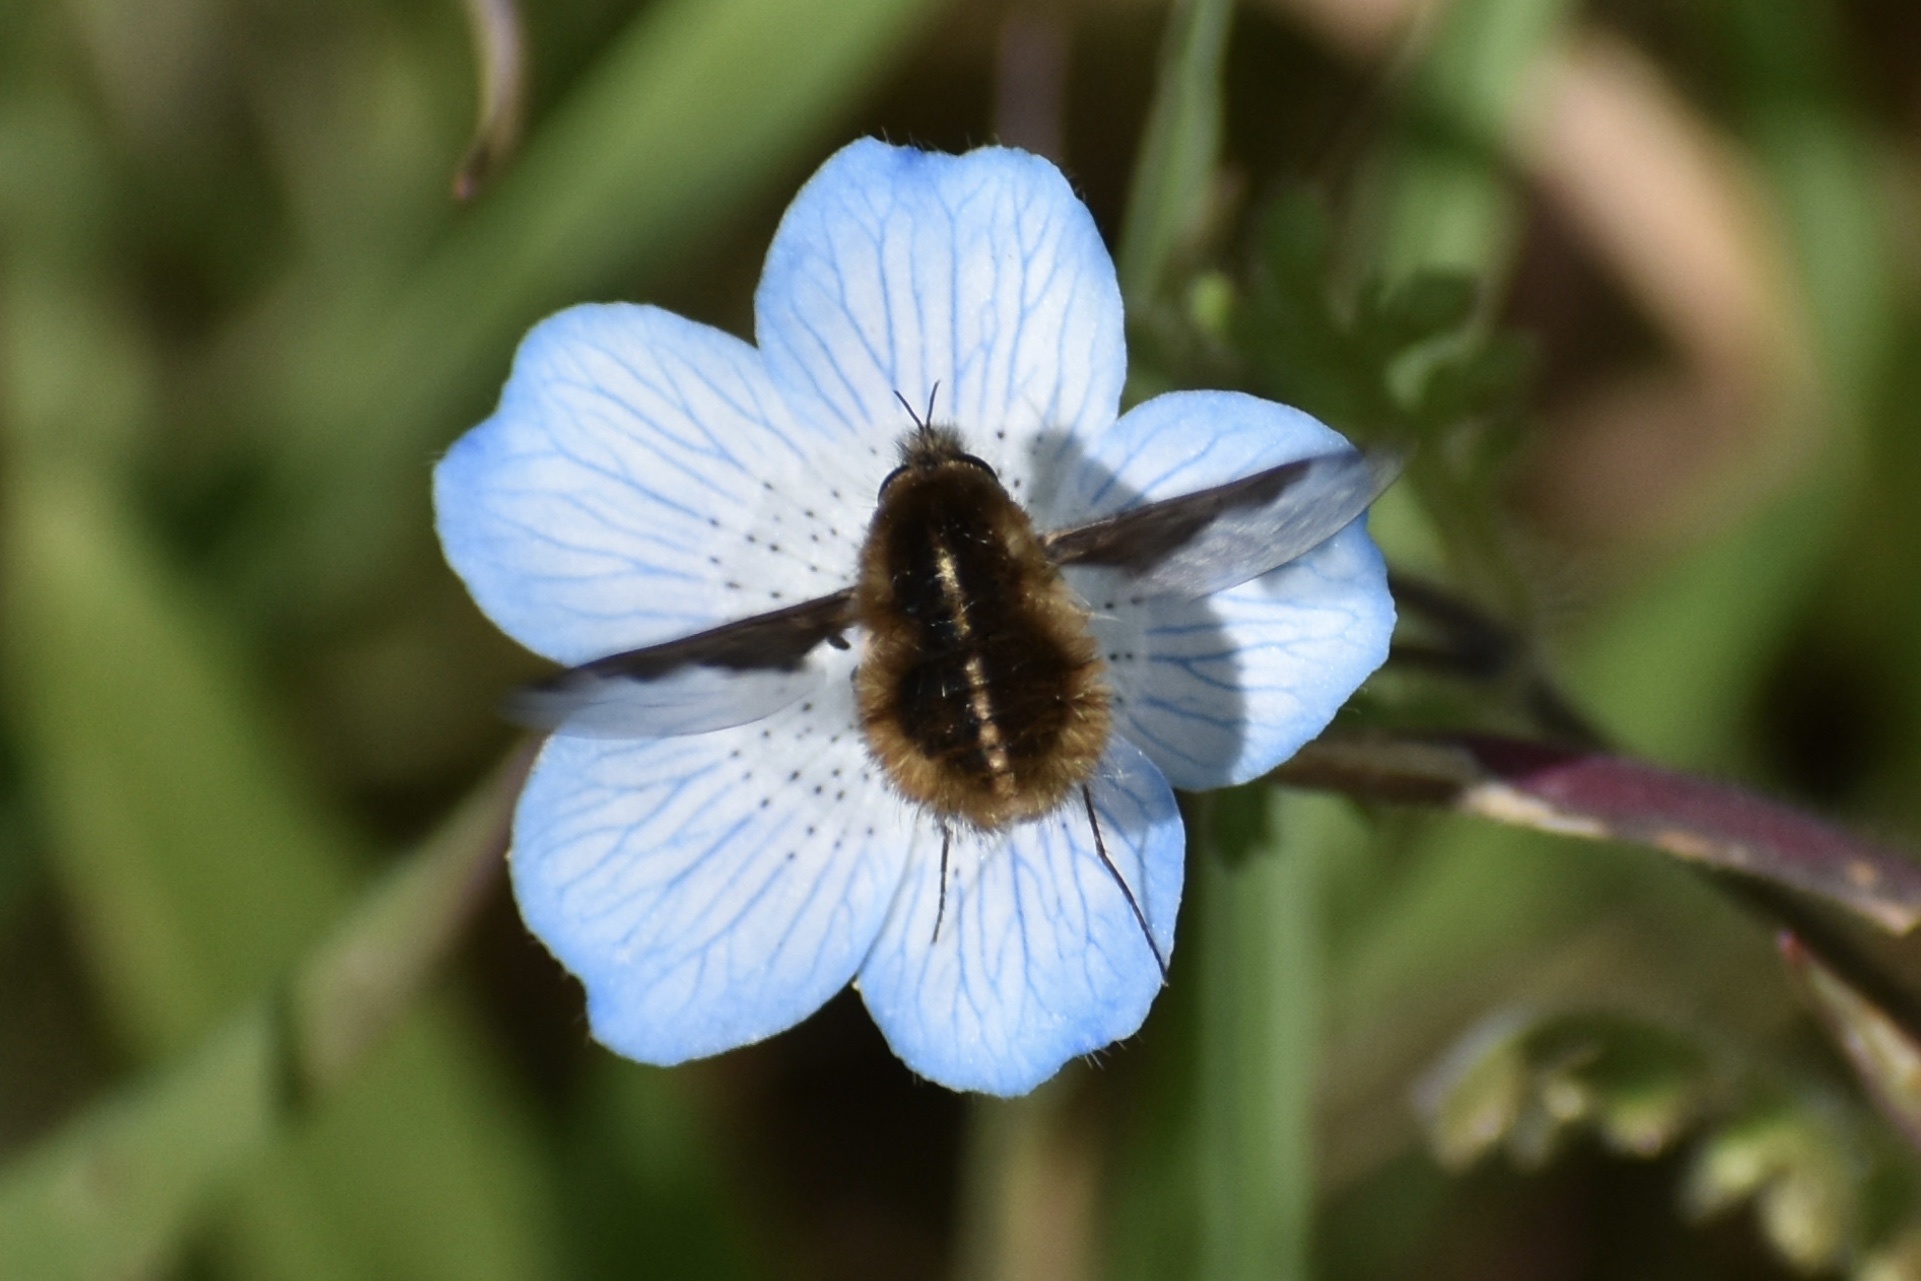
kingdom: Animalia
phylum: Arthropoda
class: Insecta
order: Diptera
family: Bombyliidae
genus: Bombylius
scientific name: Bombylius major
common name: Bee fly
